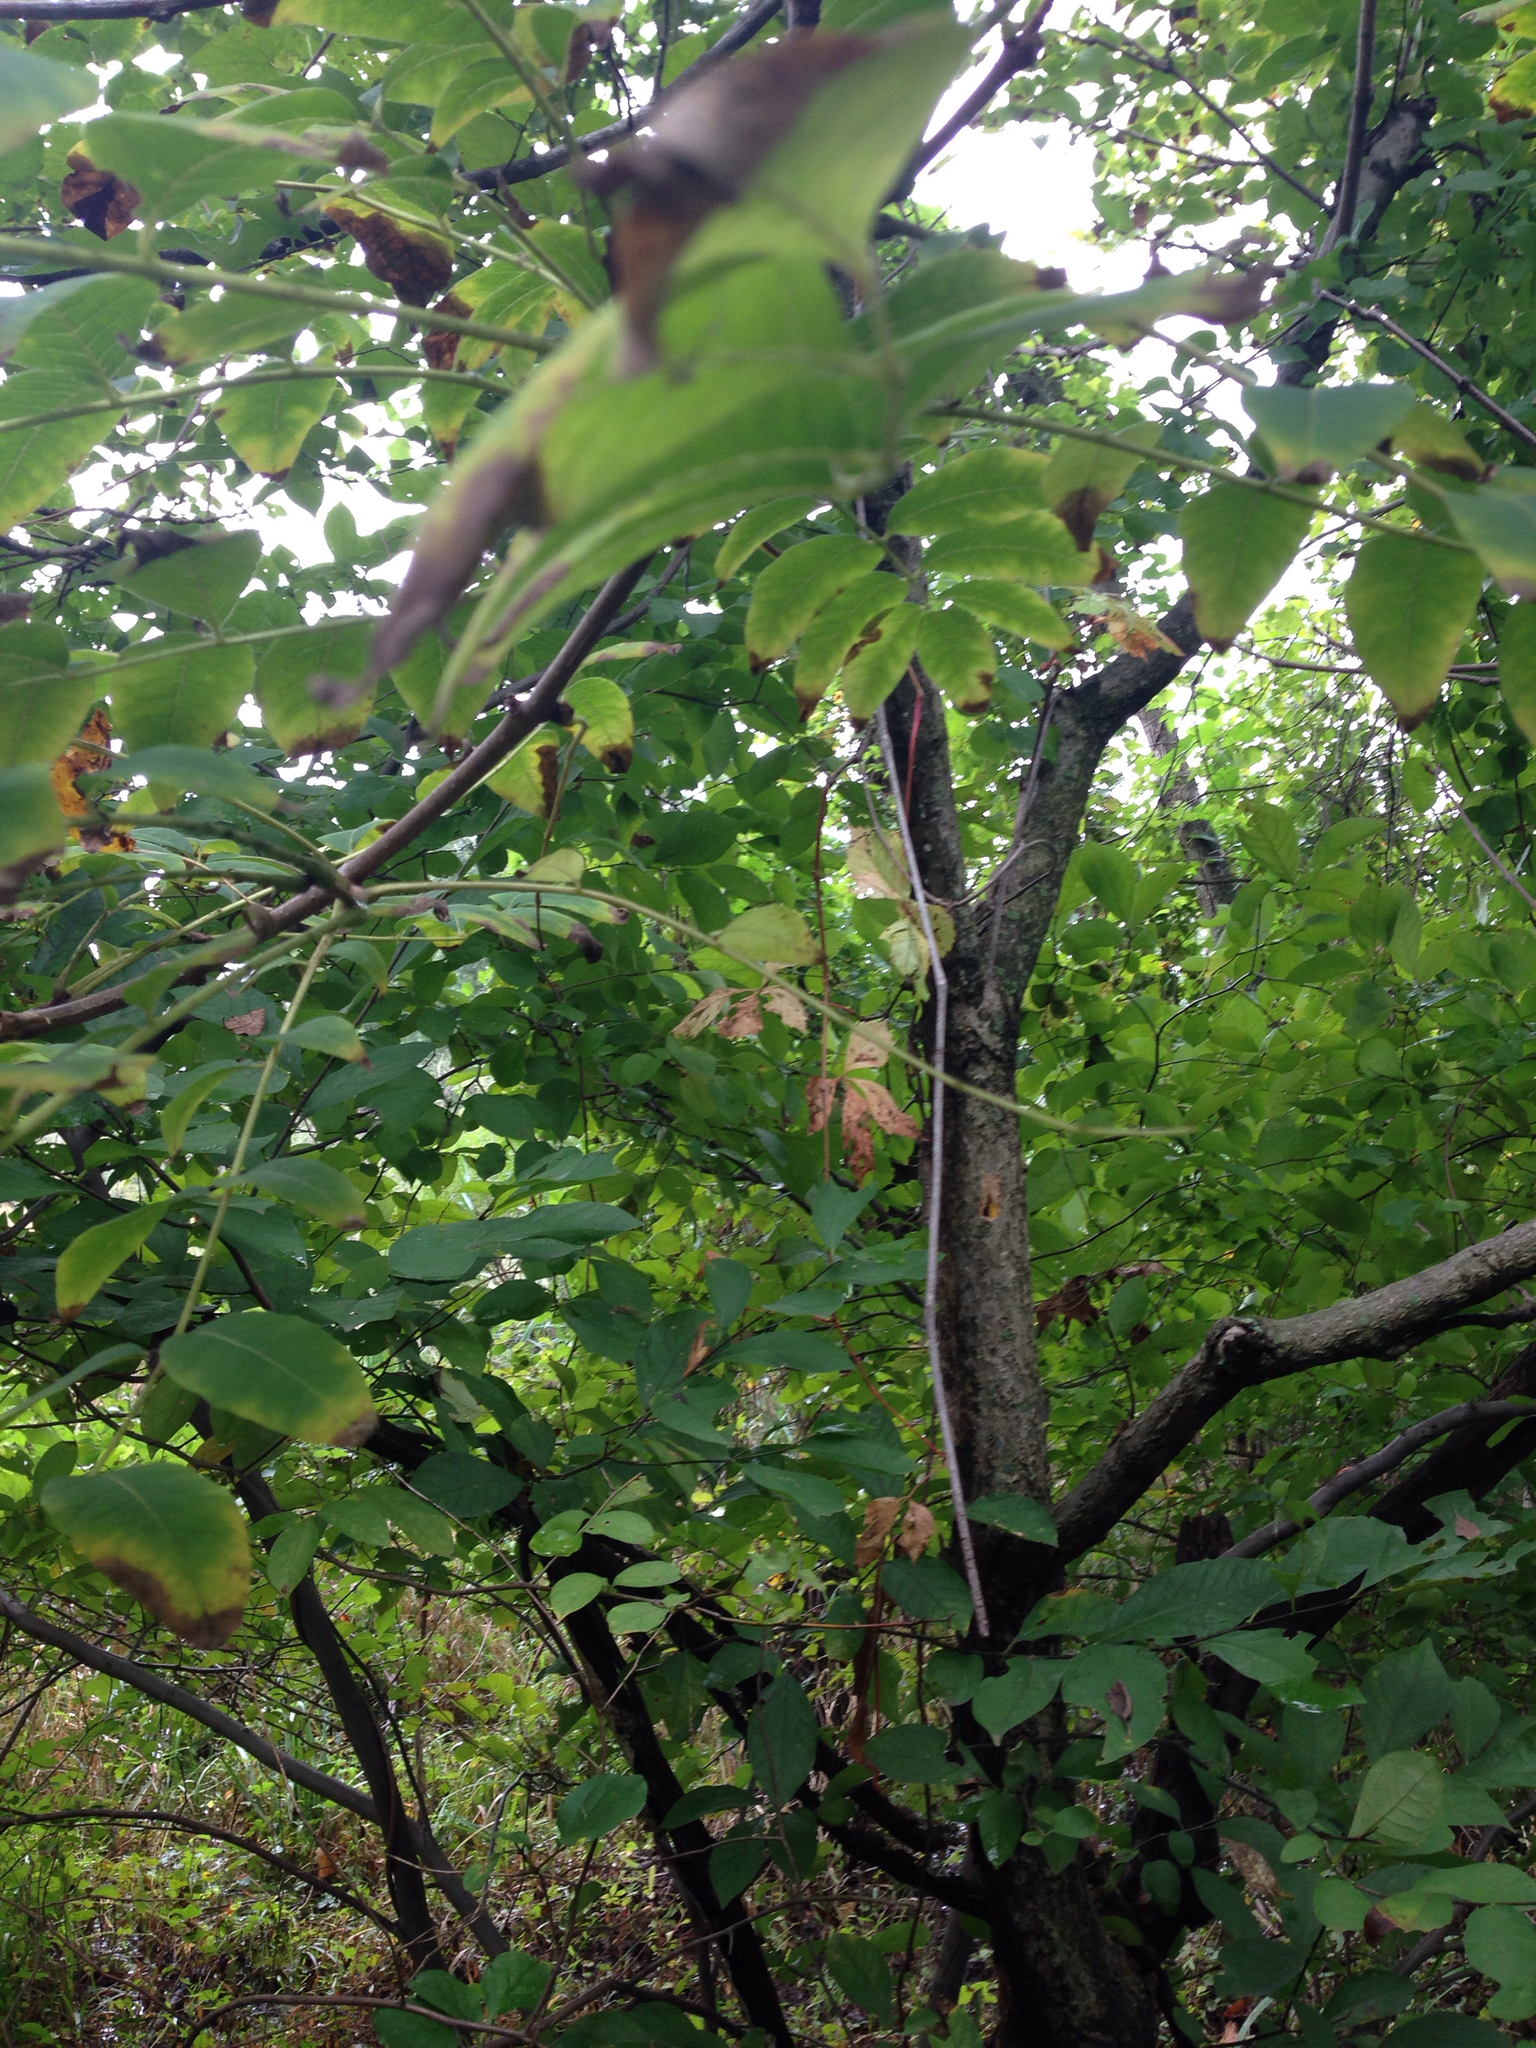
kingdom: Plantae
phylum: Tracheophyta
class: Magnoliopsida
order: Sapindales
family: Rutaceae
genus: Phellodendron
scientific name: Phellodendron amurense
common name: Amur corktree
